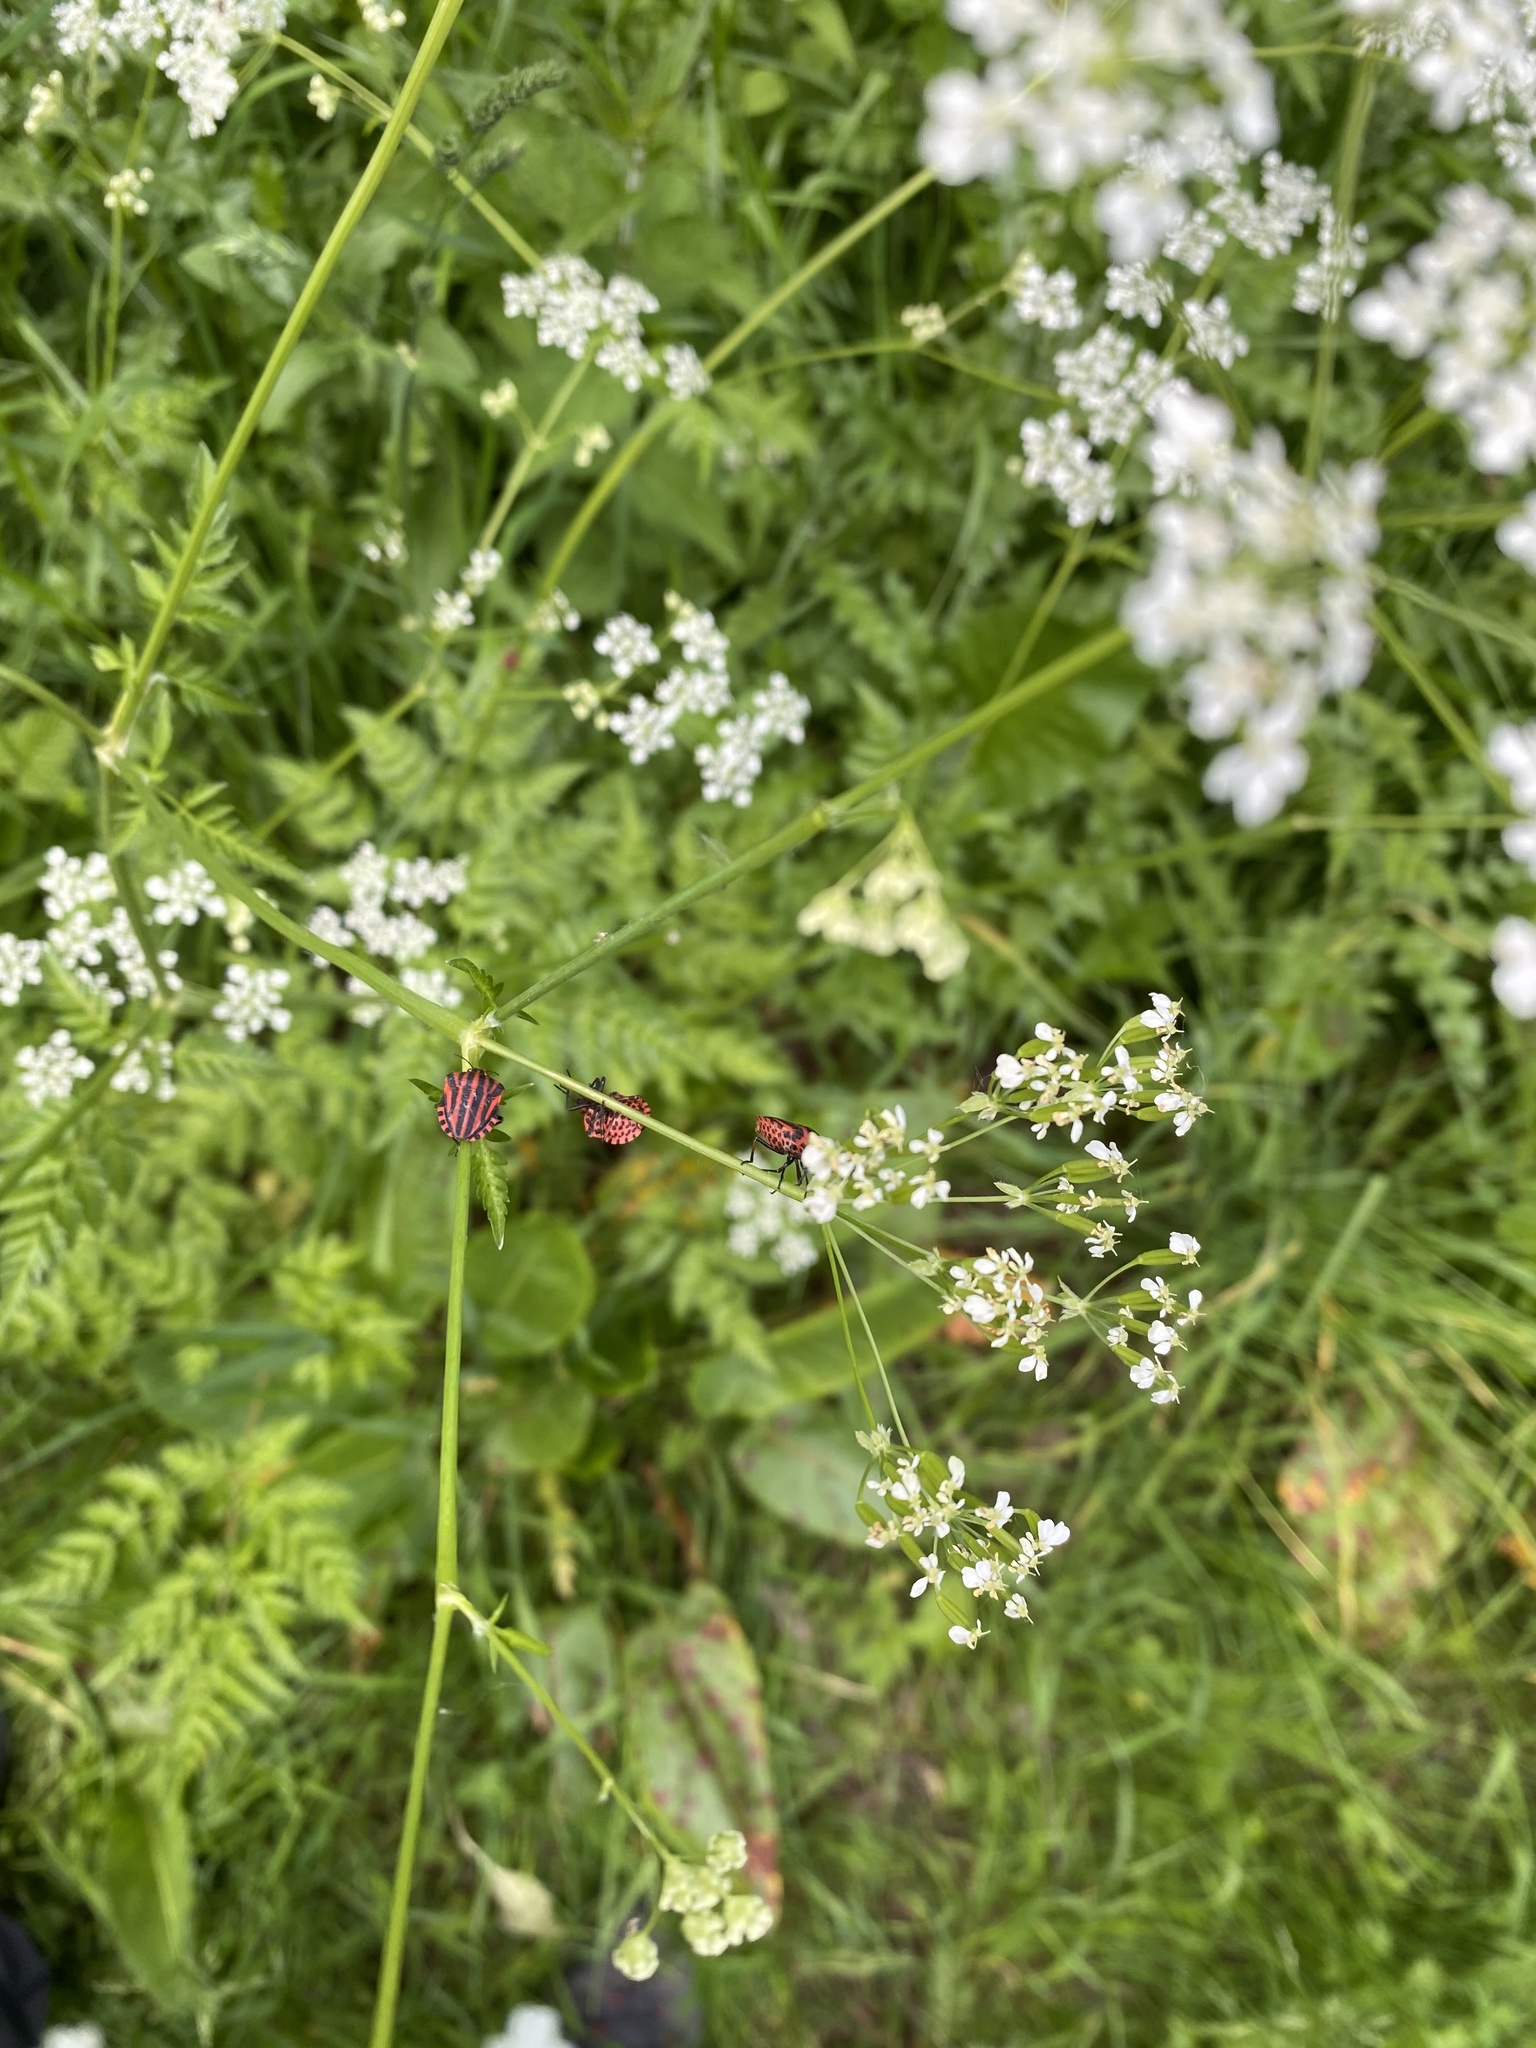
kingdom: Animalia
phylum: Arthropoda
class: Insecta
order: Hemiptera
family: Pentatomidae
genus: Graphosoma
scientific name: Graphosoma italicum
